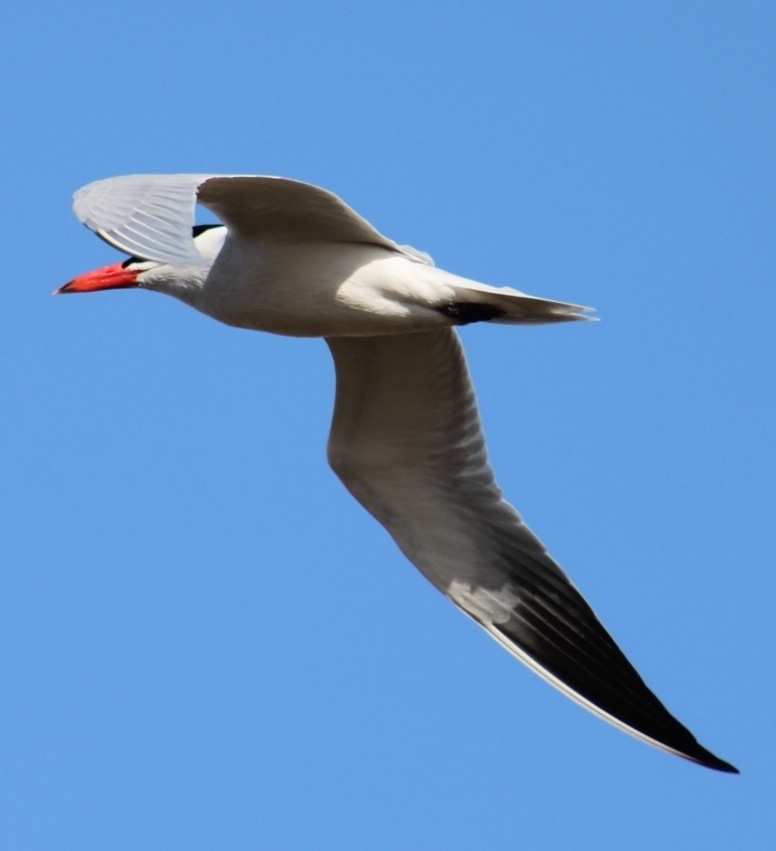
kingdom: Animalia
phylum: Chordata
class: Aves
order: Charadriiformes
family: Laridae
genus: Hydroprogne
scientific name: Hydroprogne caspia
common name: Caspian tern
